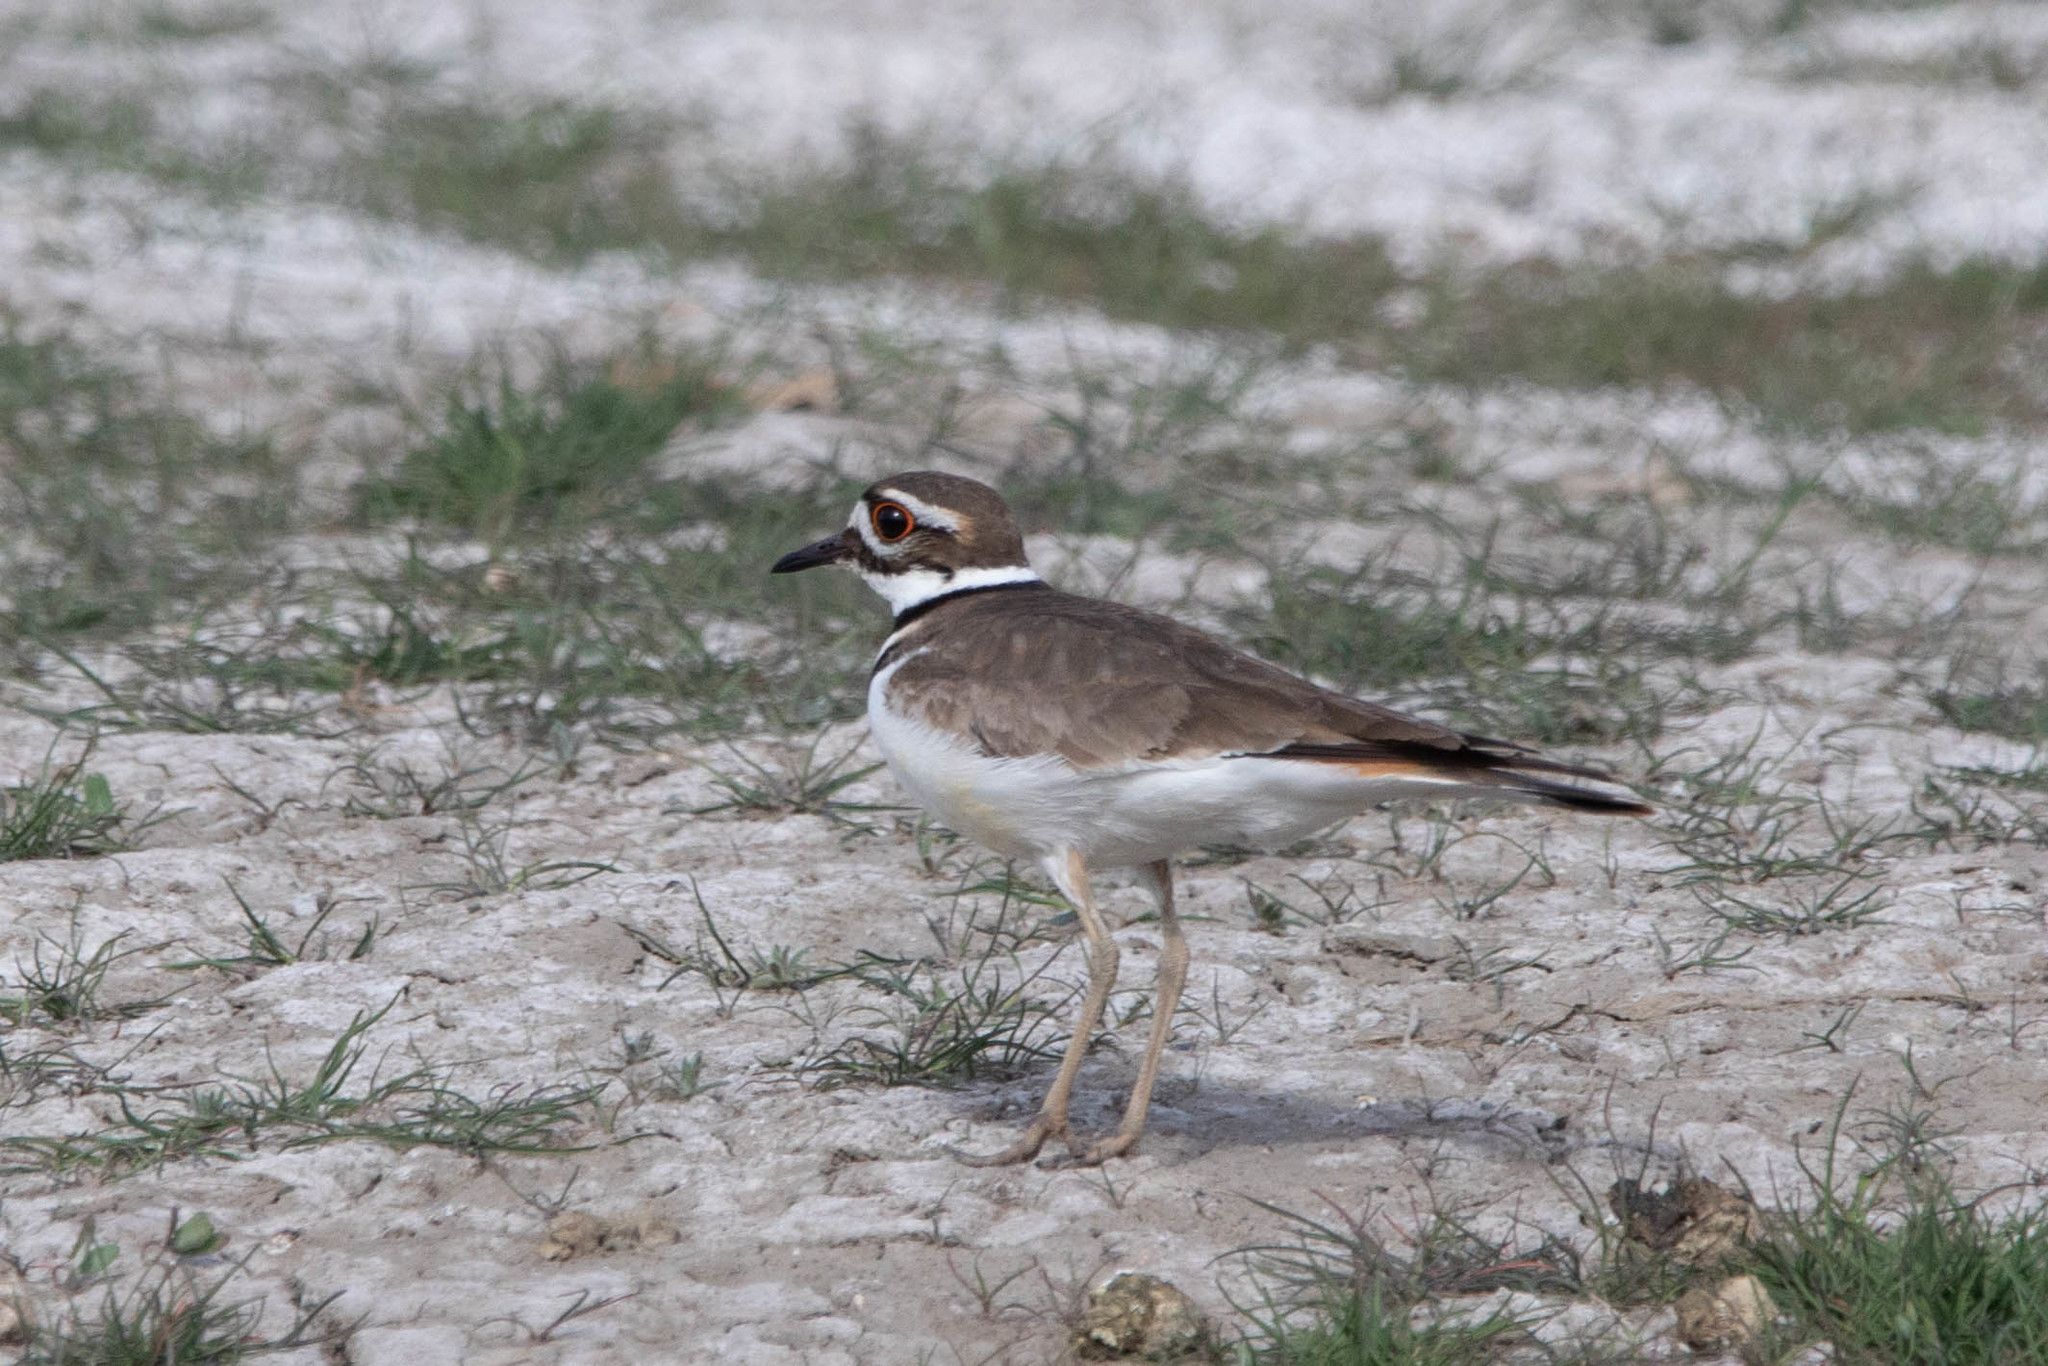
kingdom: Animalia
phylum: Chordata
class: Aves
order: Charadriiformes
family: Charadriidae
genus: Charadrius
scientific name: Charadrius vociferus
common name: Killdeer
